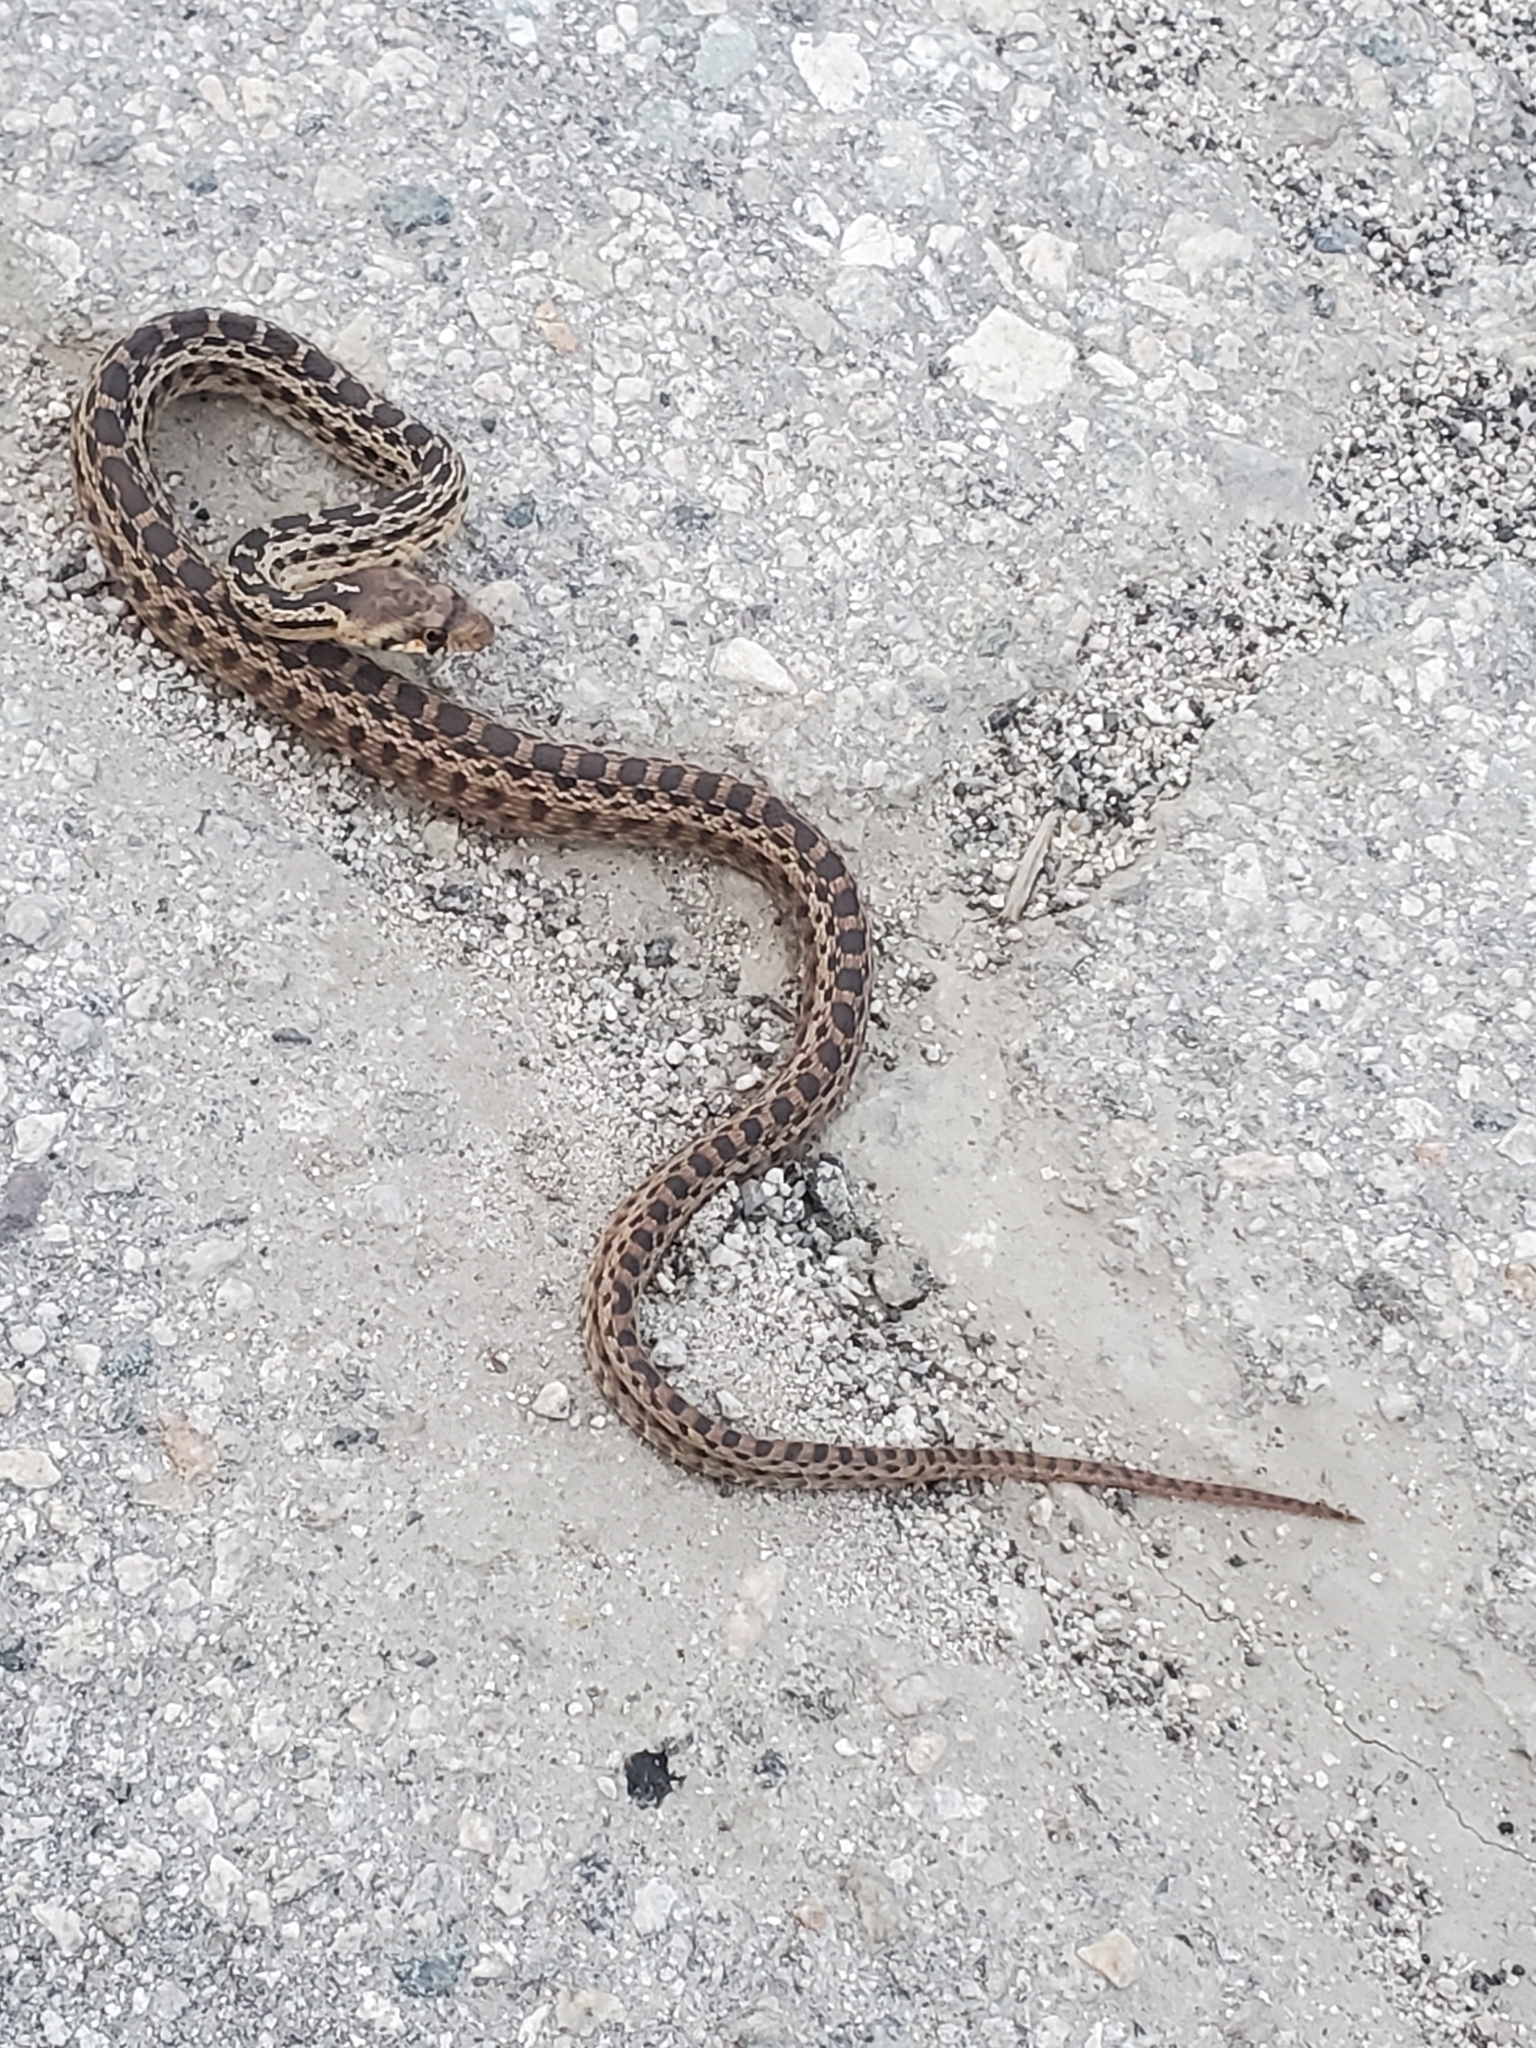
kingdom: Animalia
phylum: Chordata
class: Squamata
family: Colubridae
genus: Pituophis
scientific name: Pituophis catenifer
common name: Gopher snake
